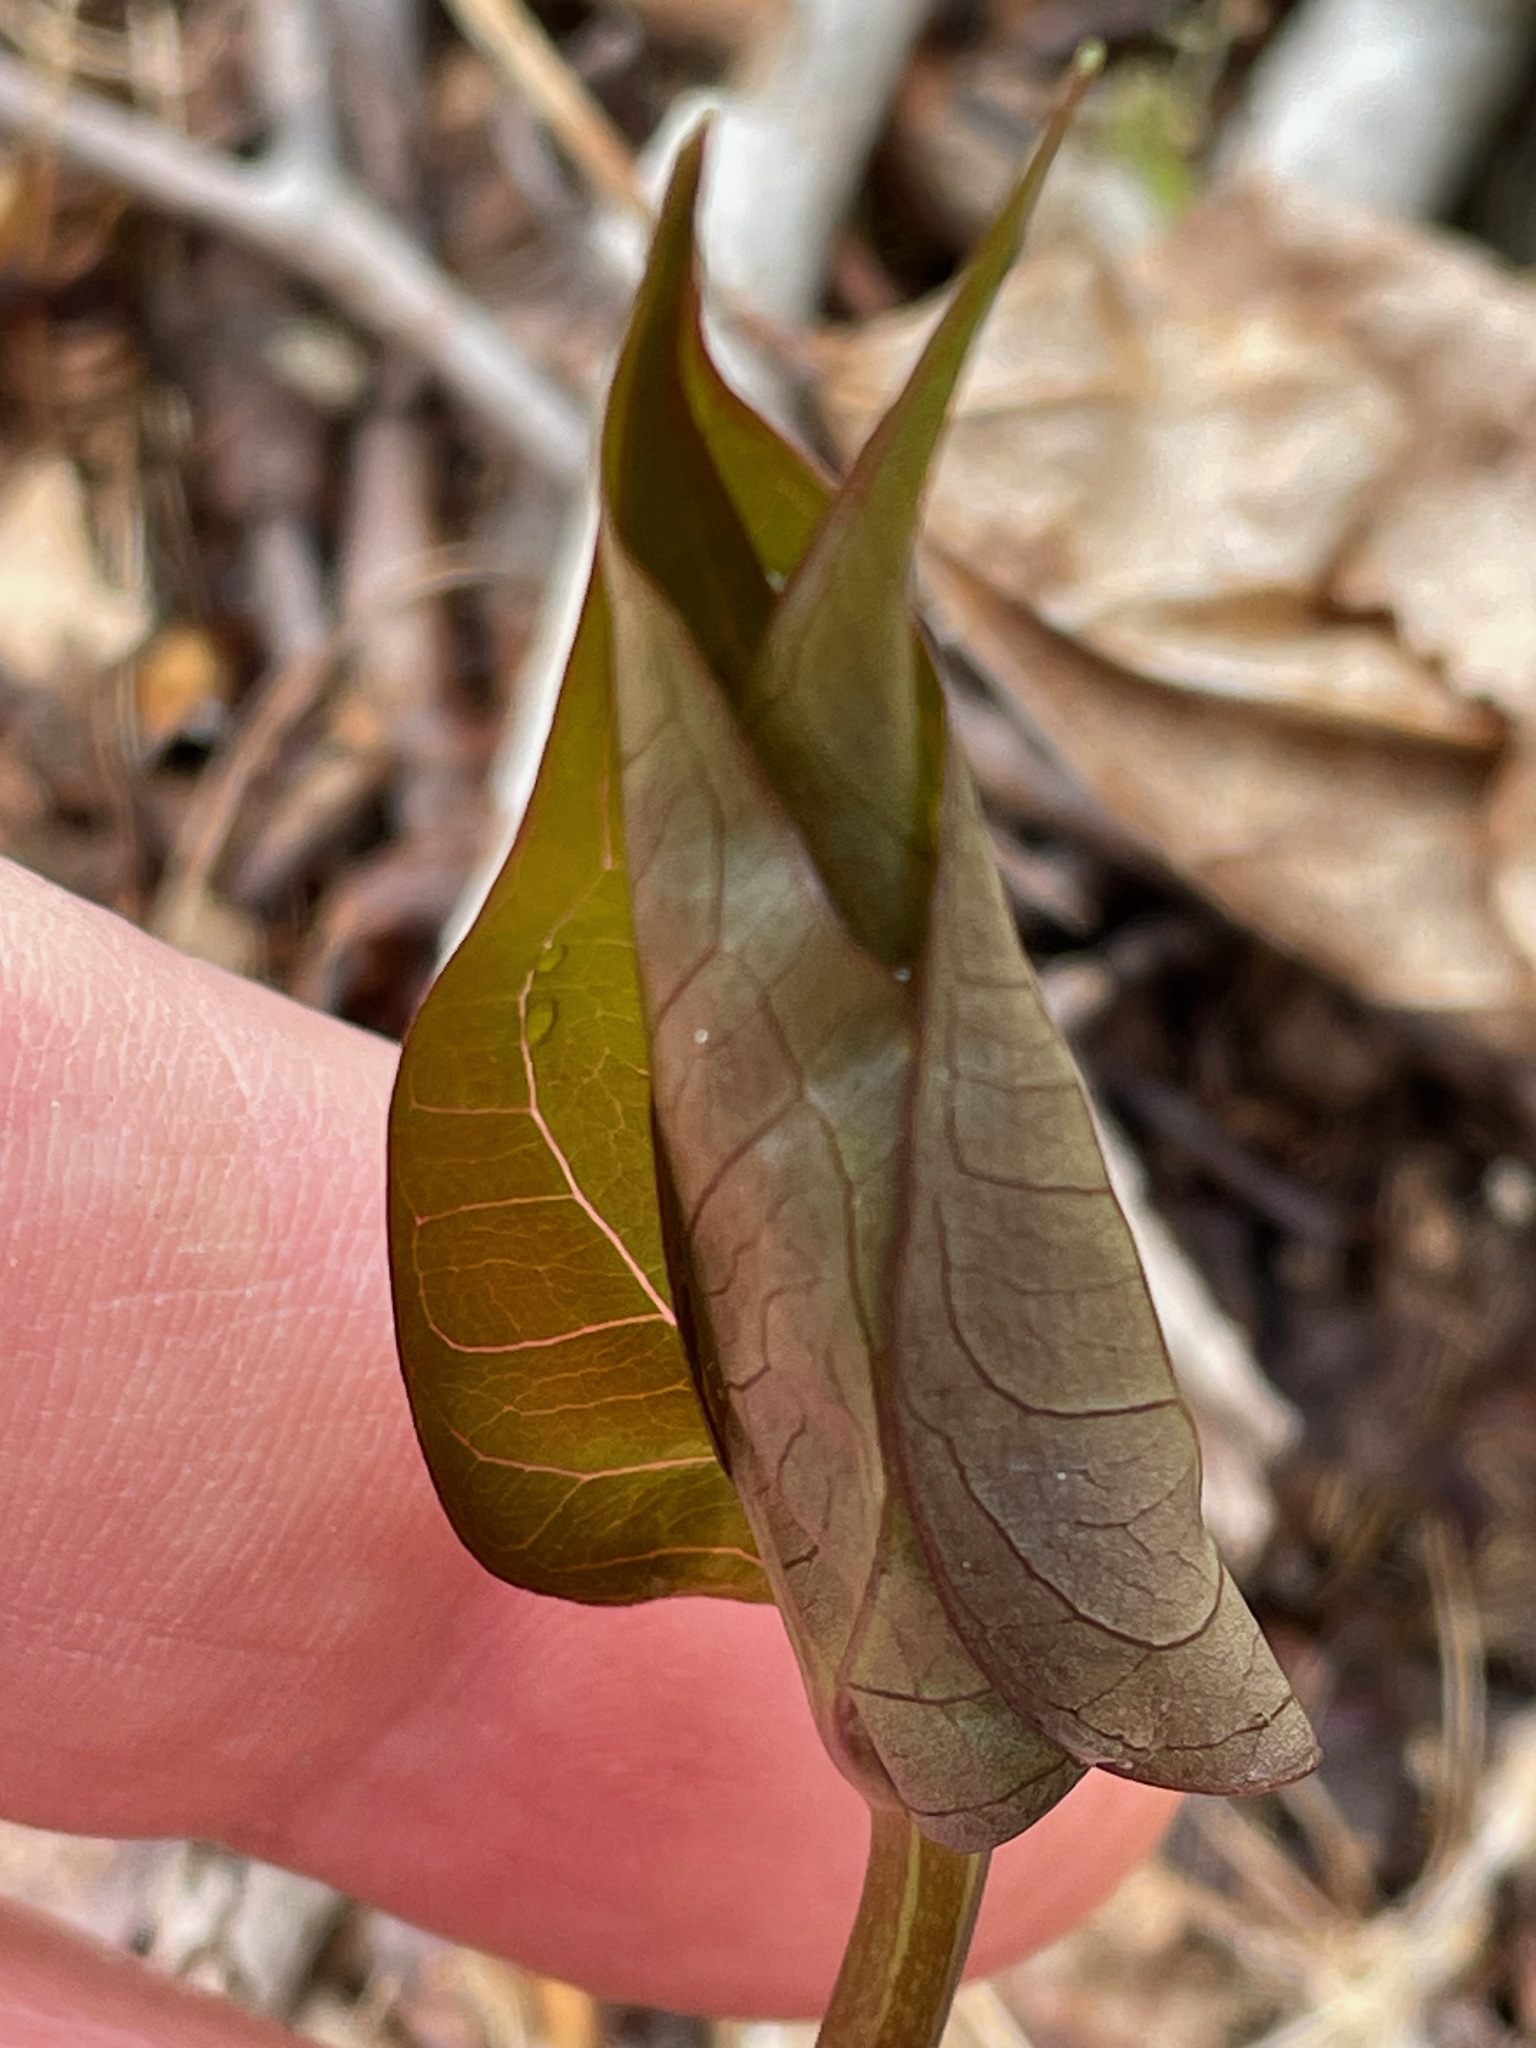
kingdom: Plantae
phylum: Tracheophyta
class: Liliopsida
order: Liliales
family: Melanthiaceae
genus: Trillium
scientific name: Trillium undulatum
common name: Paint trillium
